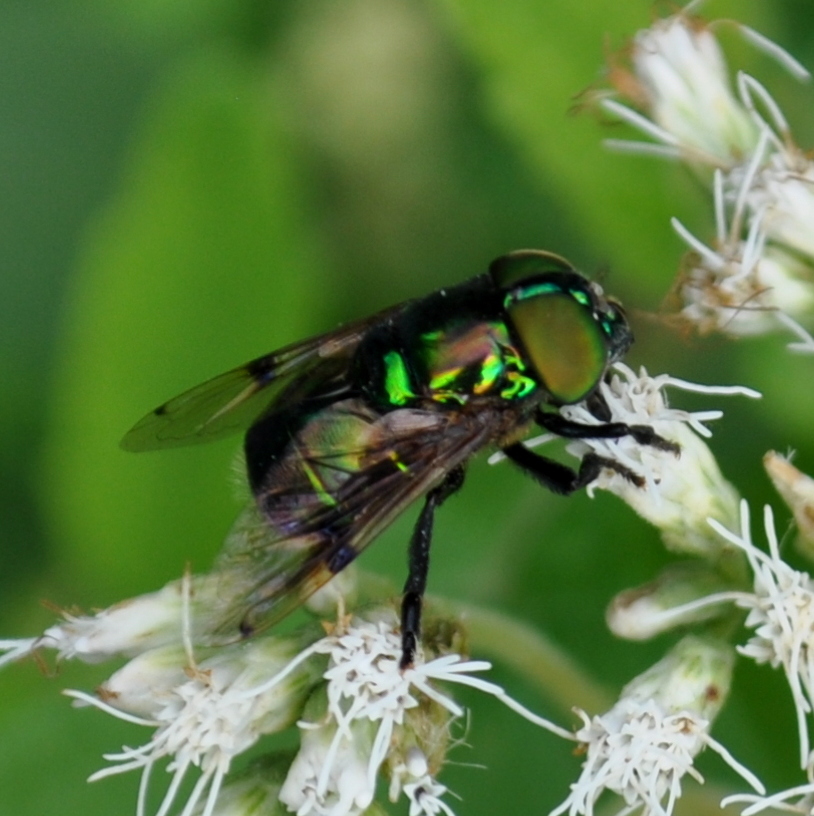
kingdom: Animalia
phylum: Arthropoda
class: Insecta
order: Diptera
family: Syrphidae
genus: Ornidia
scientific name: Ornidia obesa
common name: Syrphid fly
